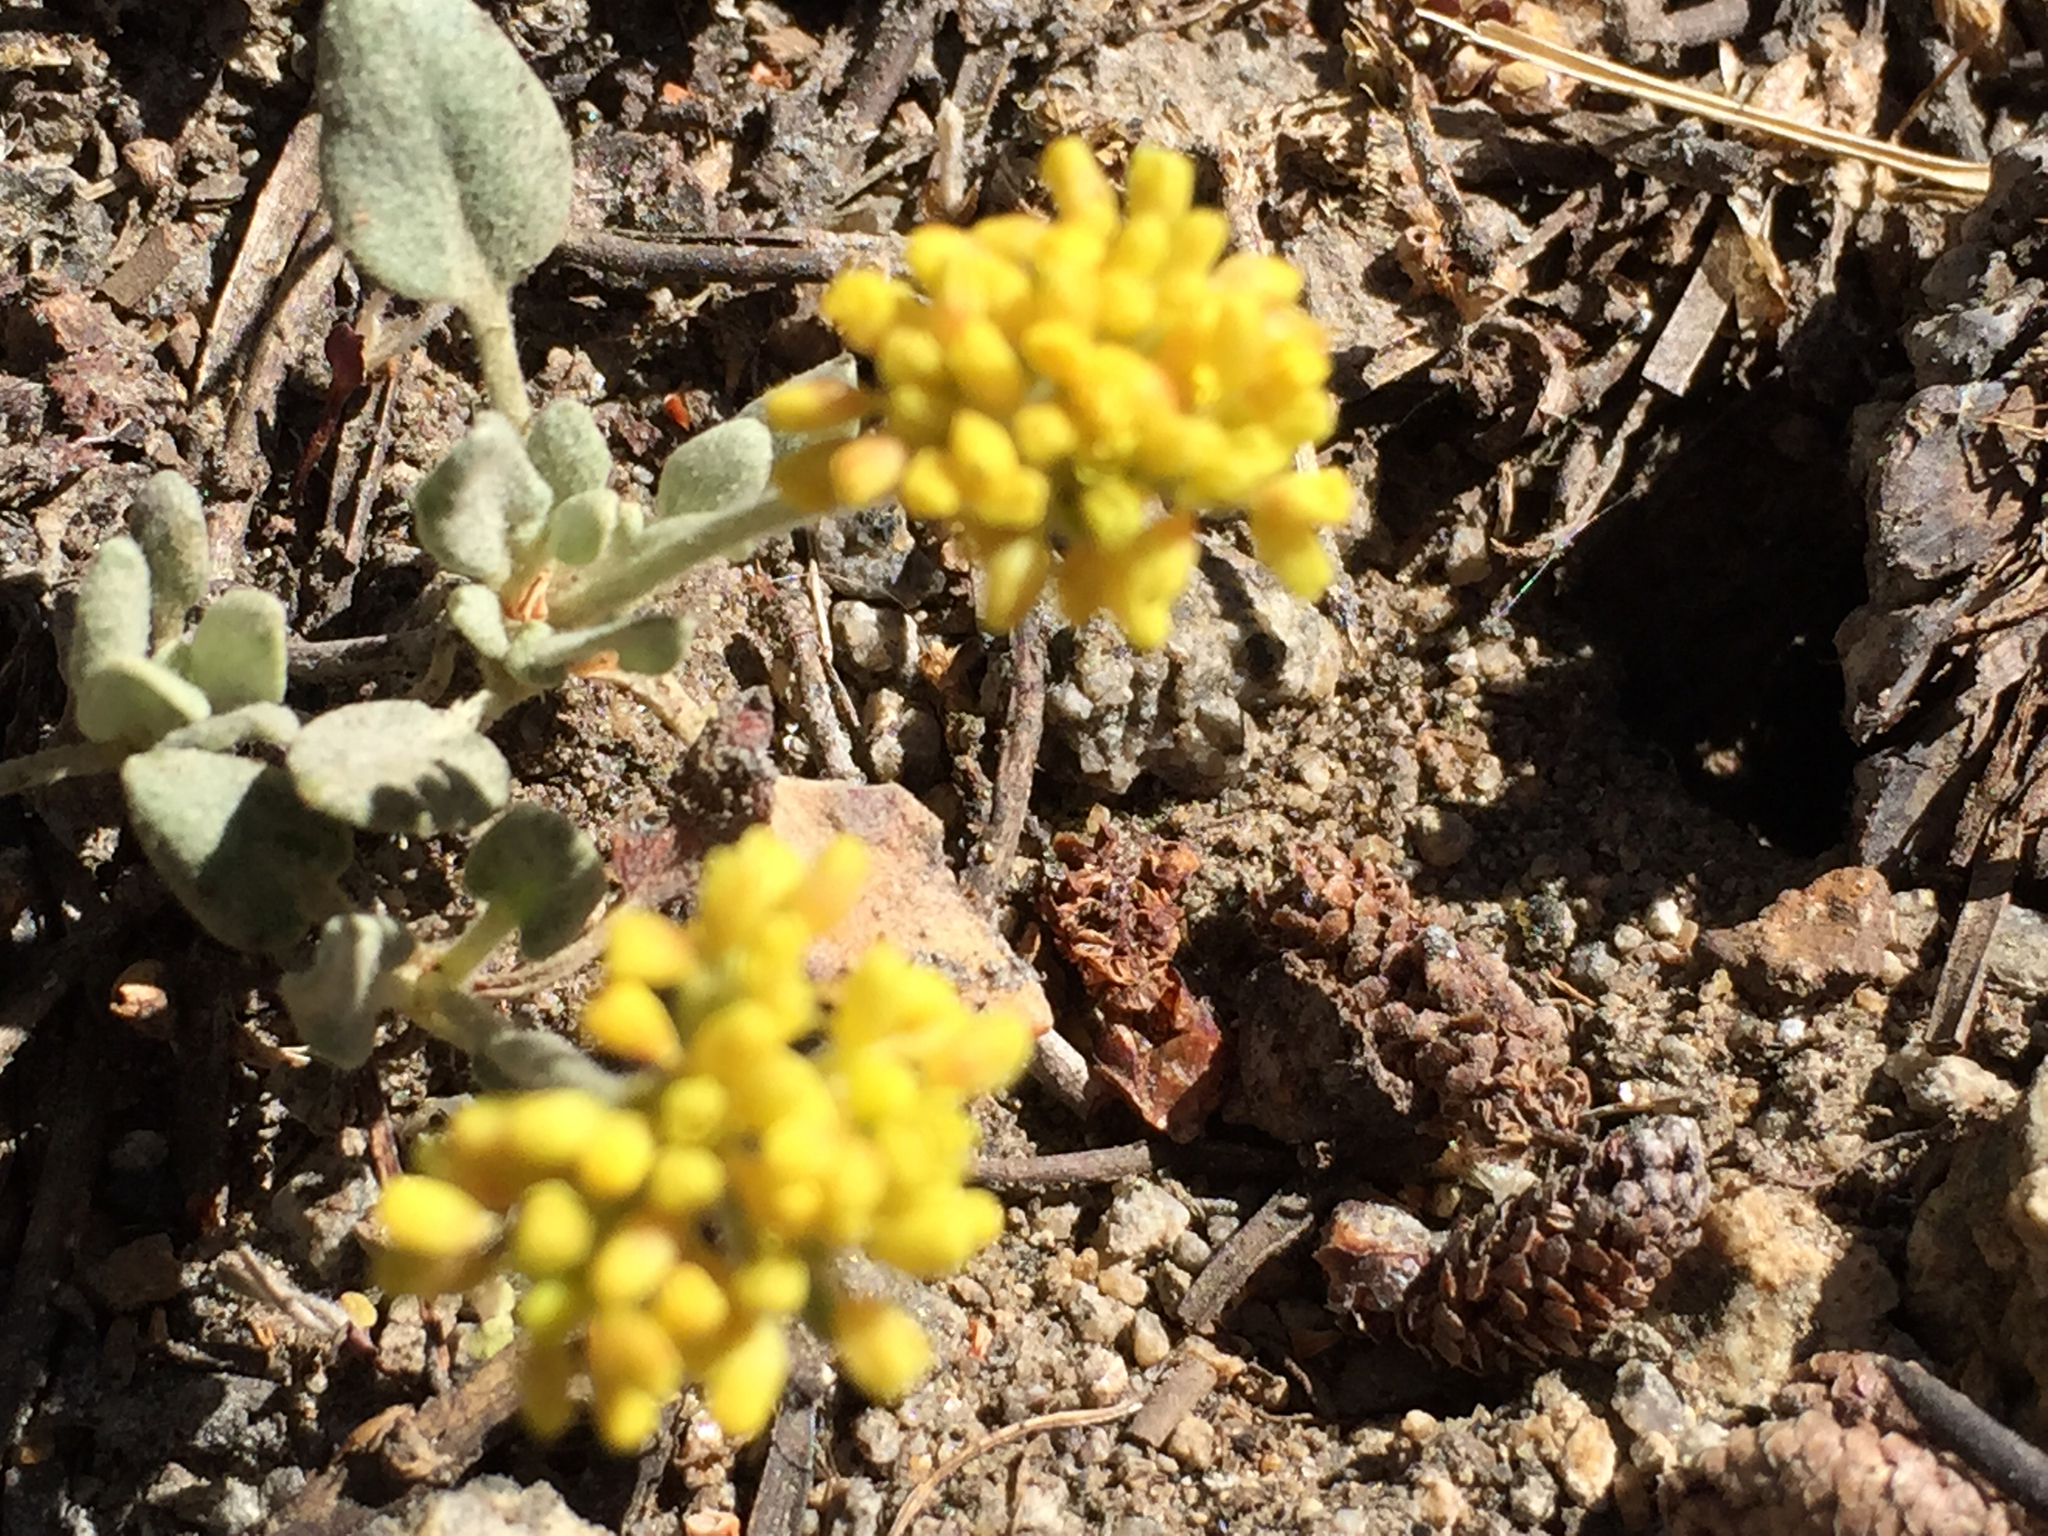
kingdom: Plantae
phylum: Tracheophyta
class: Magnoliopsida
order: Caryophyllales
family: Polygonaceae
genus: Eriogonum
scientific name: Eriogonum umbellatum
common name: Sulfur-buckwheat
